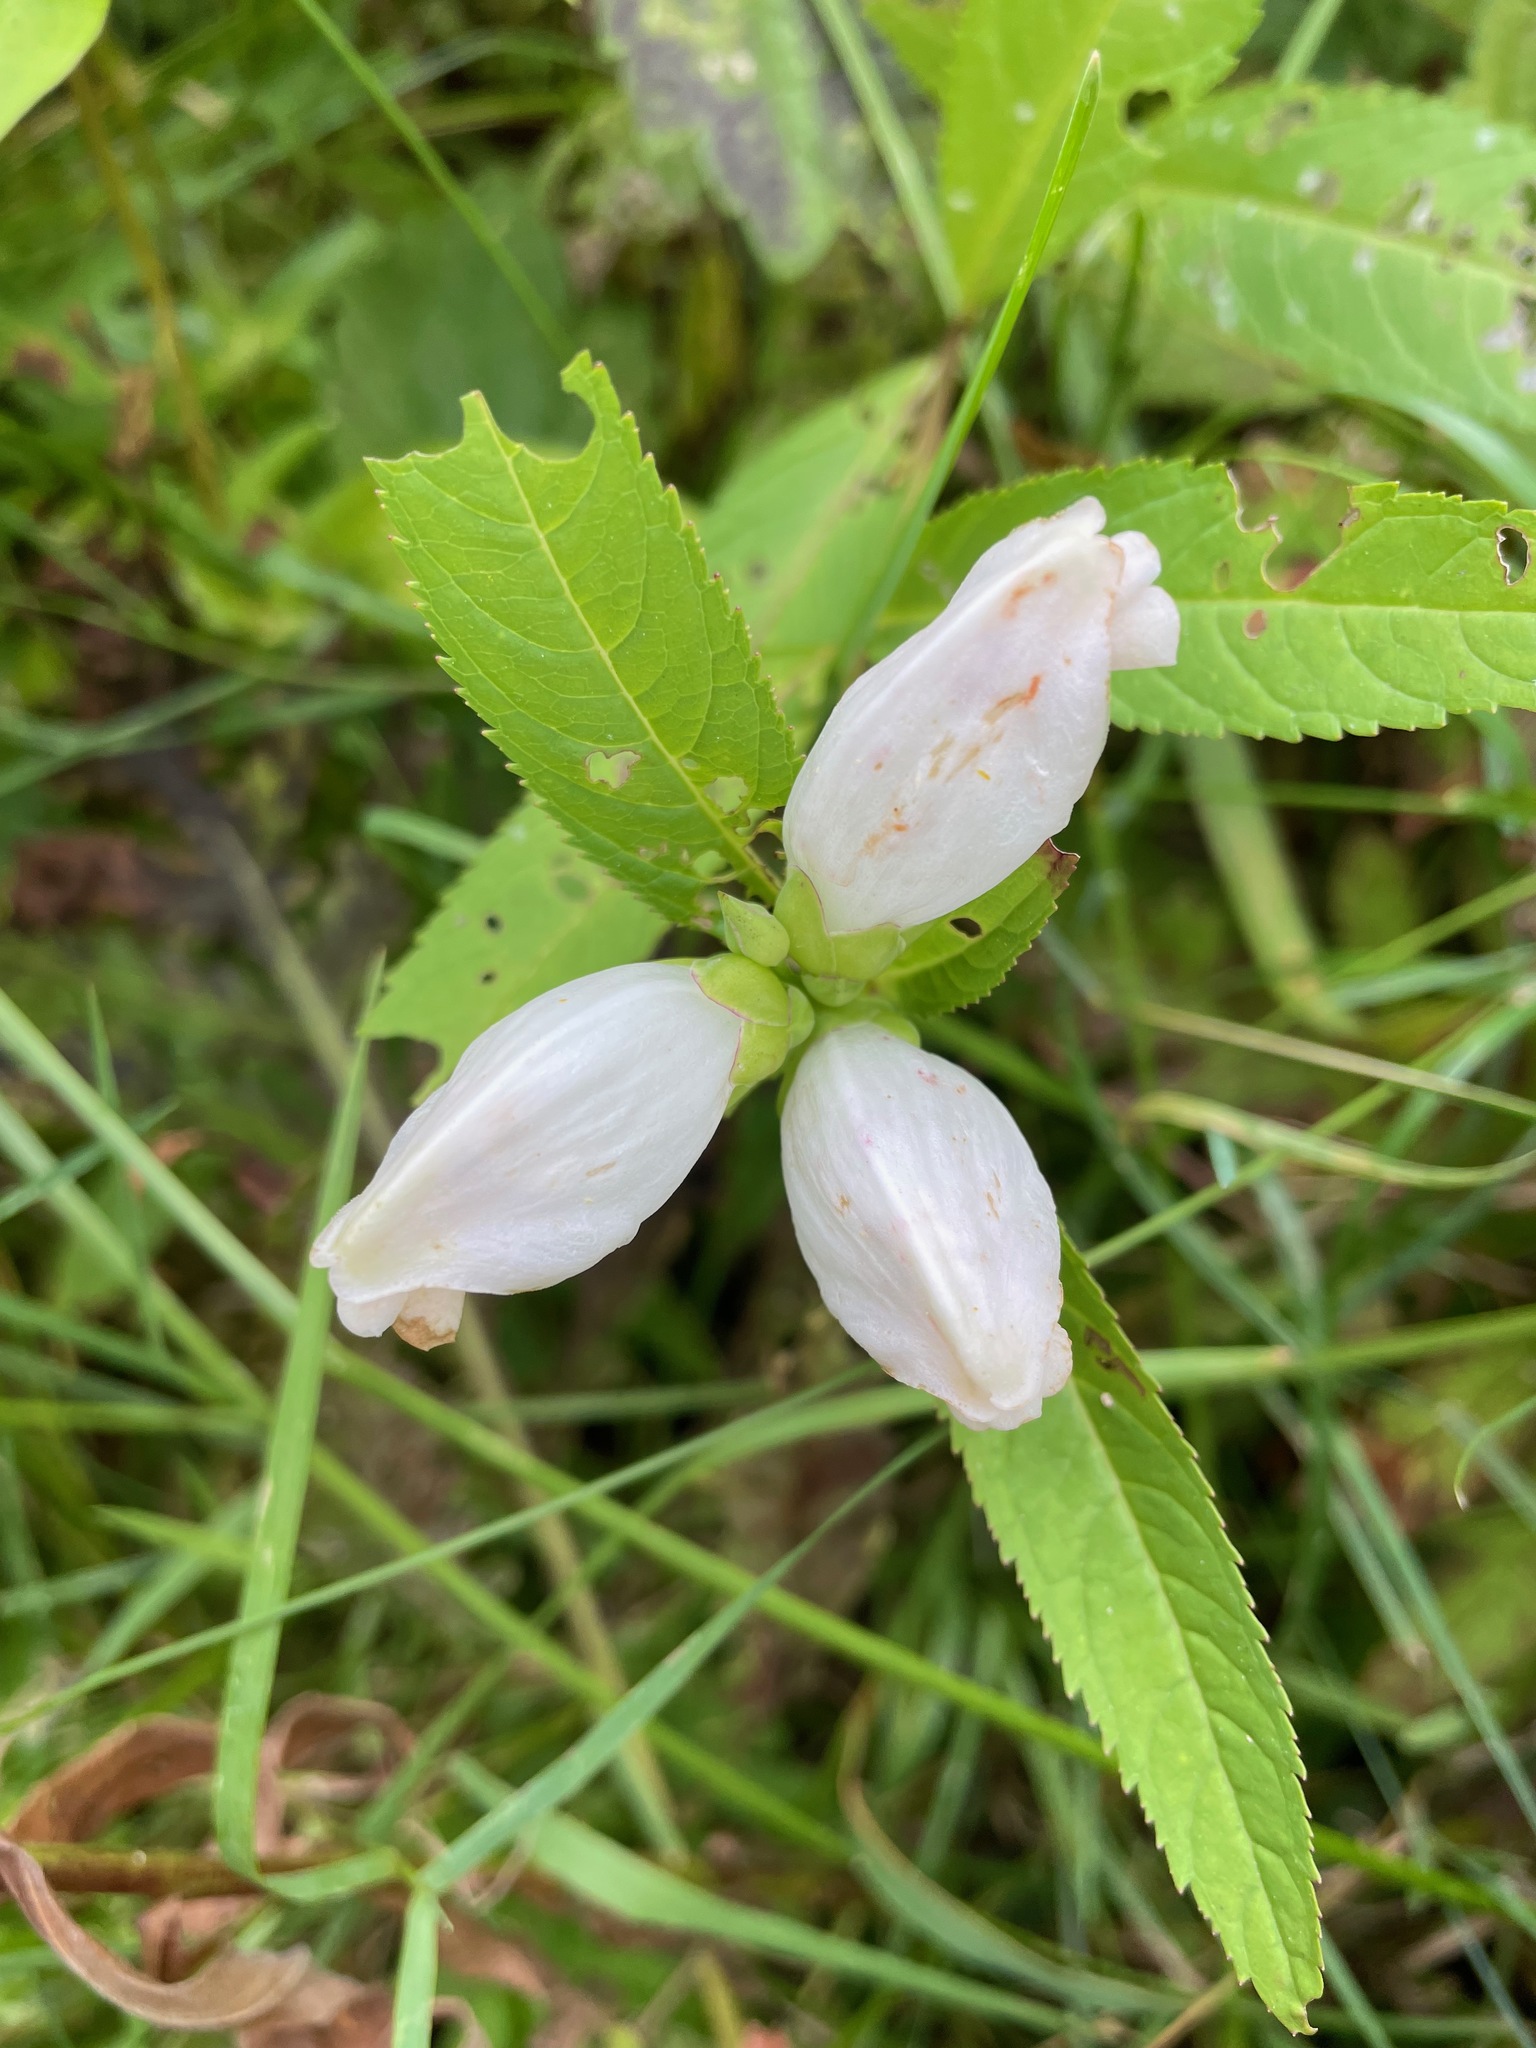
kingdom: Plantae
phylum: Tracheophyta
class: Magnoliopsida
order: Lamiales
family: Plantaginaceae
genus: Chelone
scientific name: Chelone glabra
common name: Snakehead
